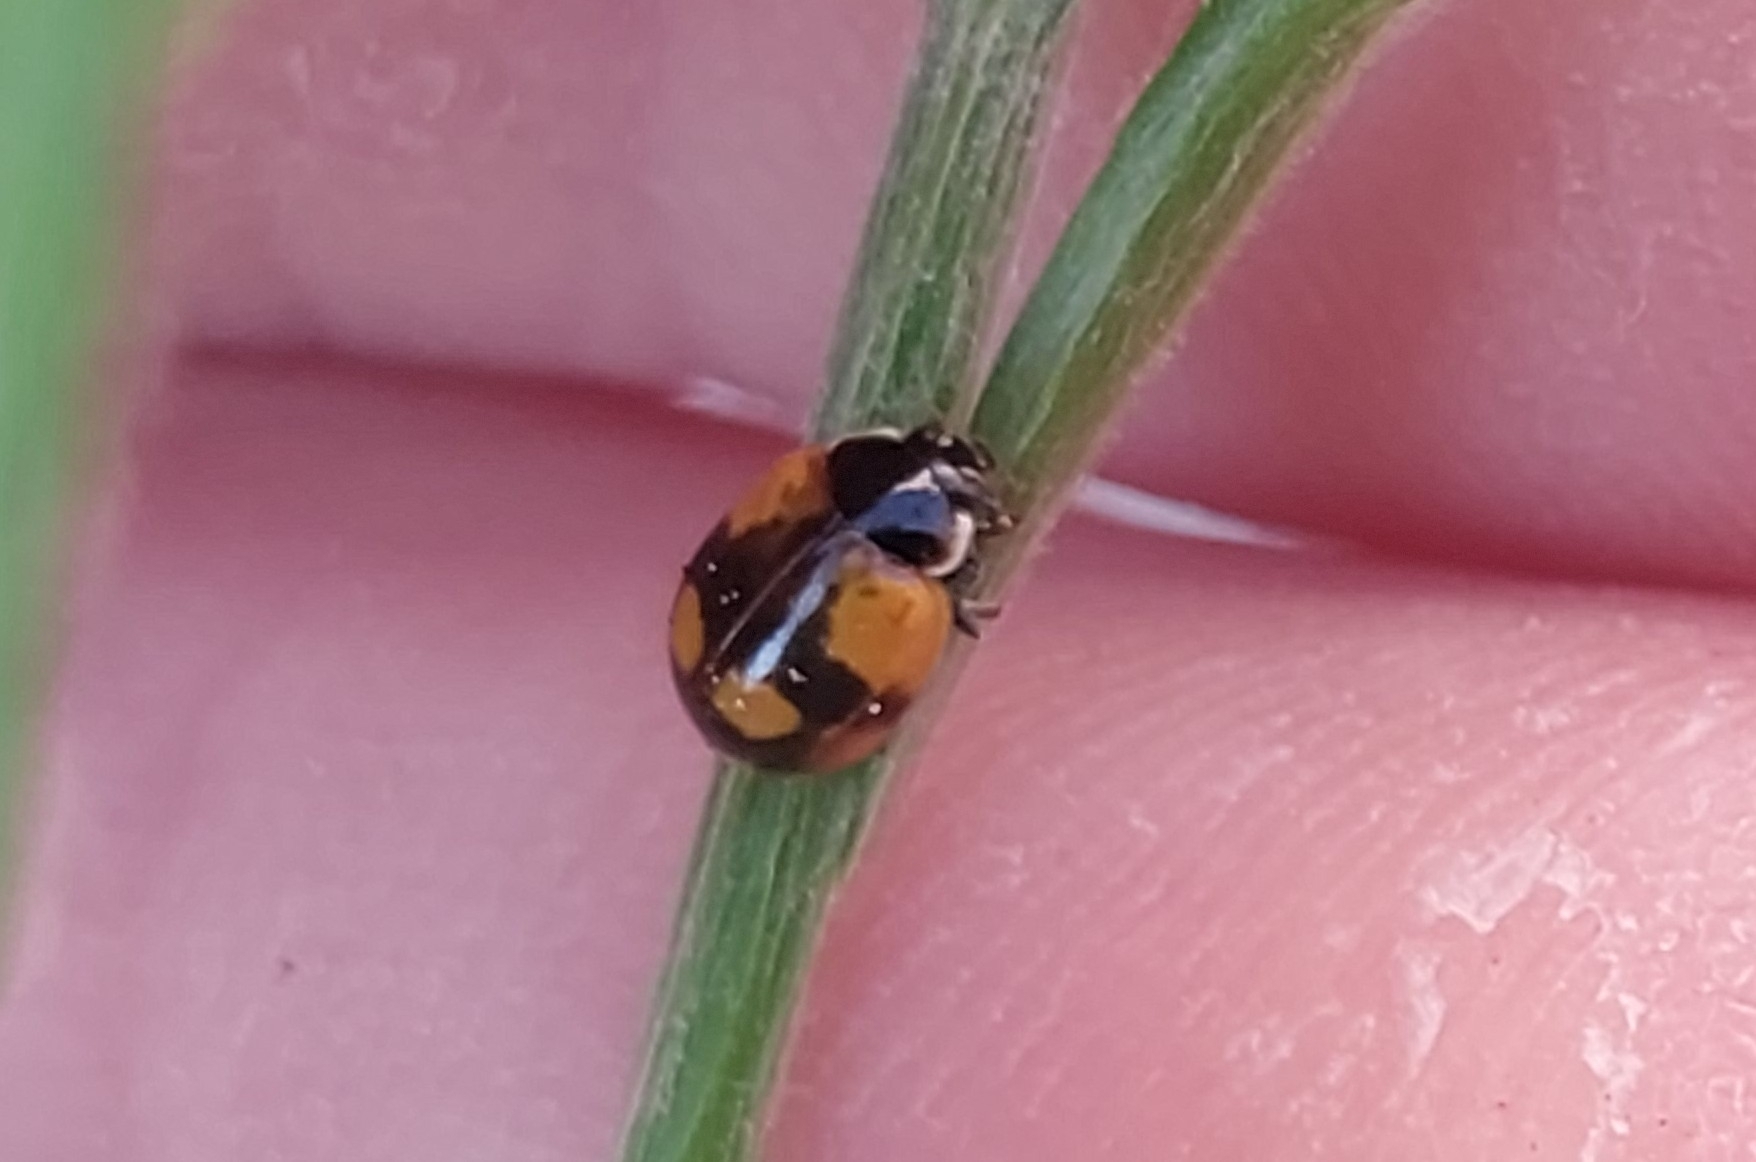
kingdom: Animalia
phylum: Arthropoda
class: Insecta
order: Coleoptera
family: Coccinellidae
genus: Adalia
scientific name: Adalia bipunctata
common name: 2-spot ladybird
